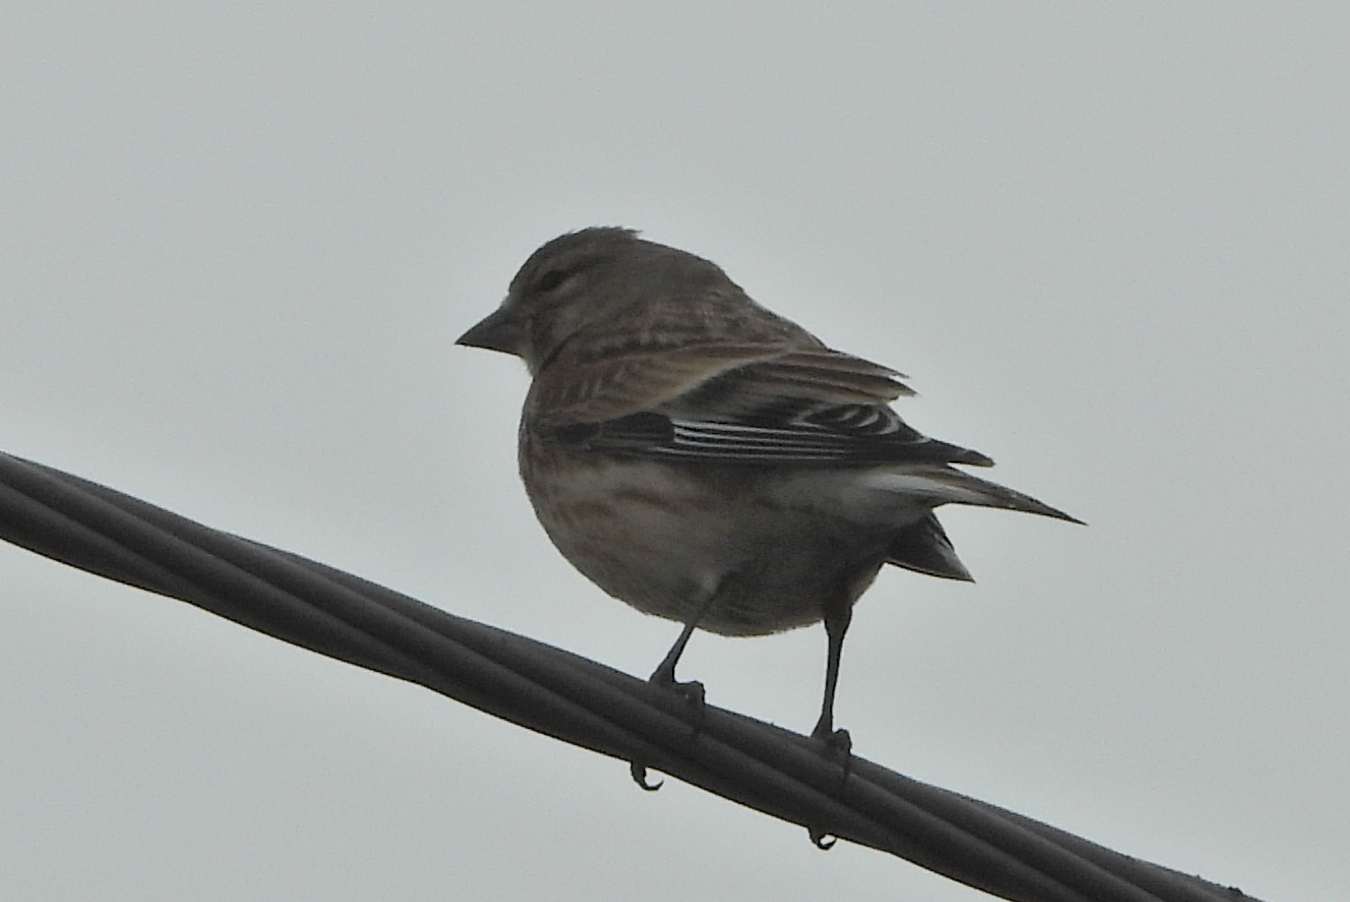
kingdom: Animalia
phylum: Chordata
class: Aves
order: Passeriformes
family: Fringillidae
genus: Linaria
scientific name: Linaria cannabina
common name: Common linnet
